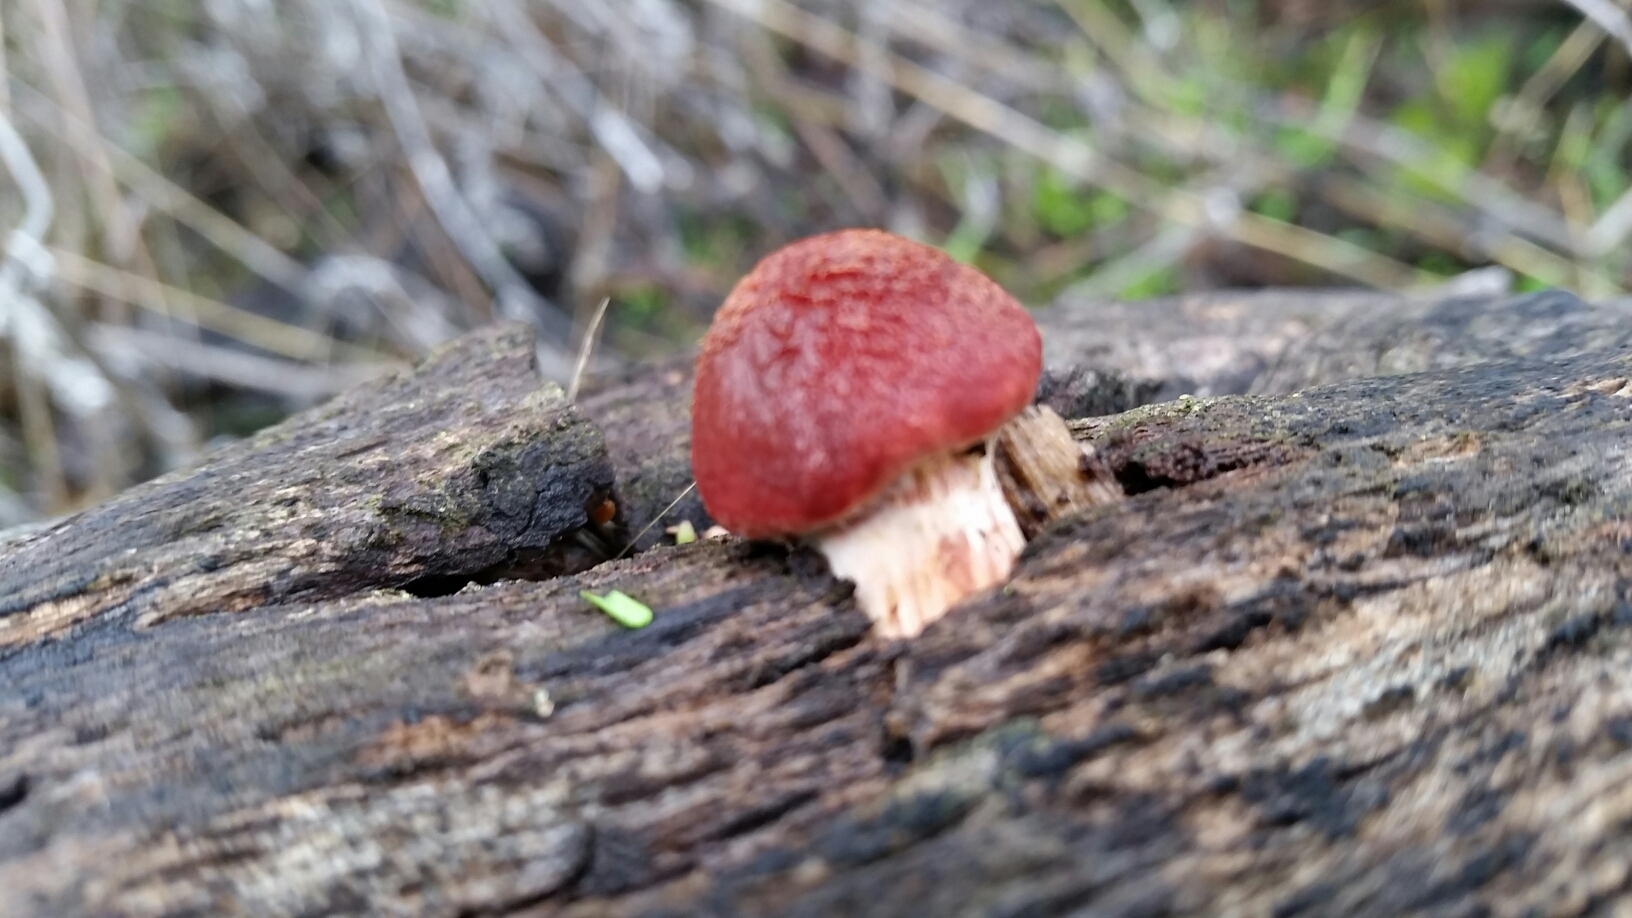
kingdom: Fungi
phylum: Basidiomycota
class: Agaricomycetes
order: Agaricales
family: Hymenogastraceae
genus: Gymnopilus
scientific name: Gymnopilus luteofolius
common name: Yellow-gilled gymnopilus
